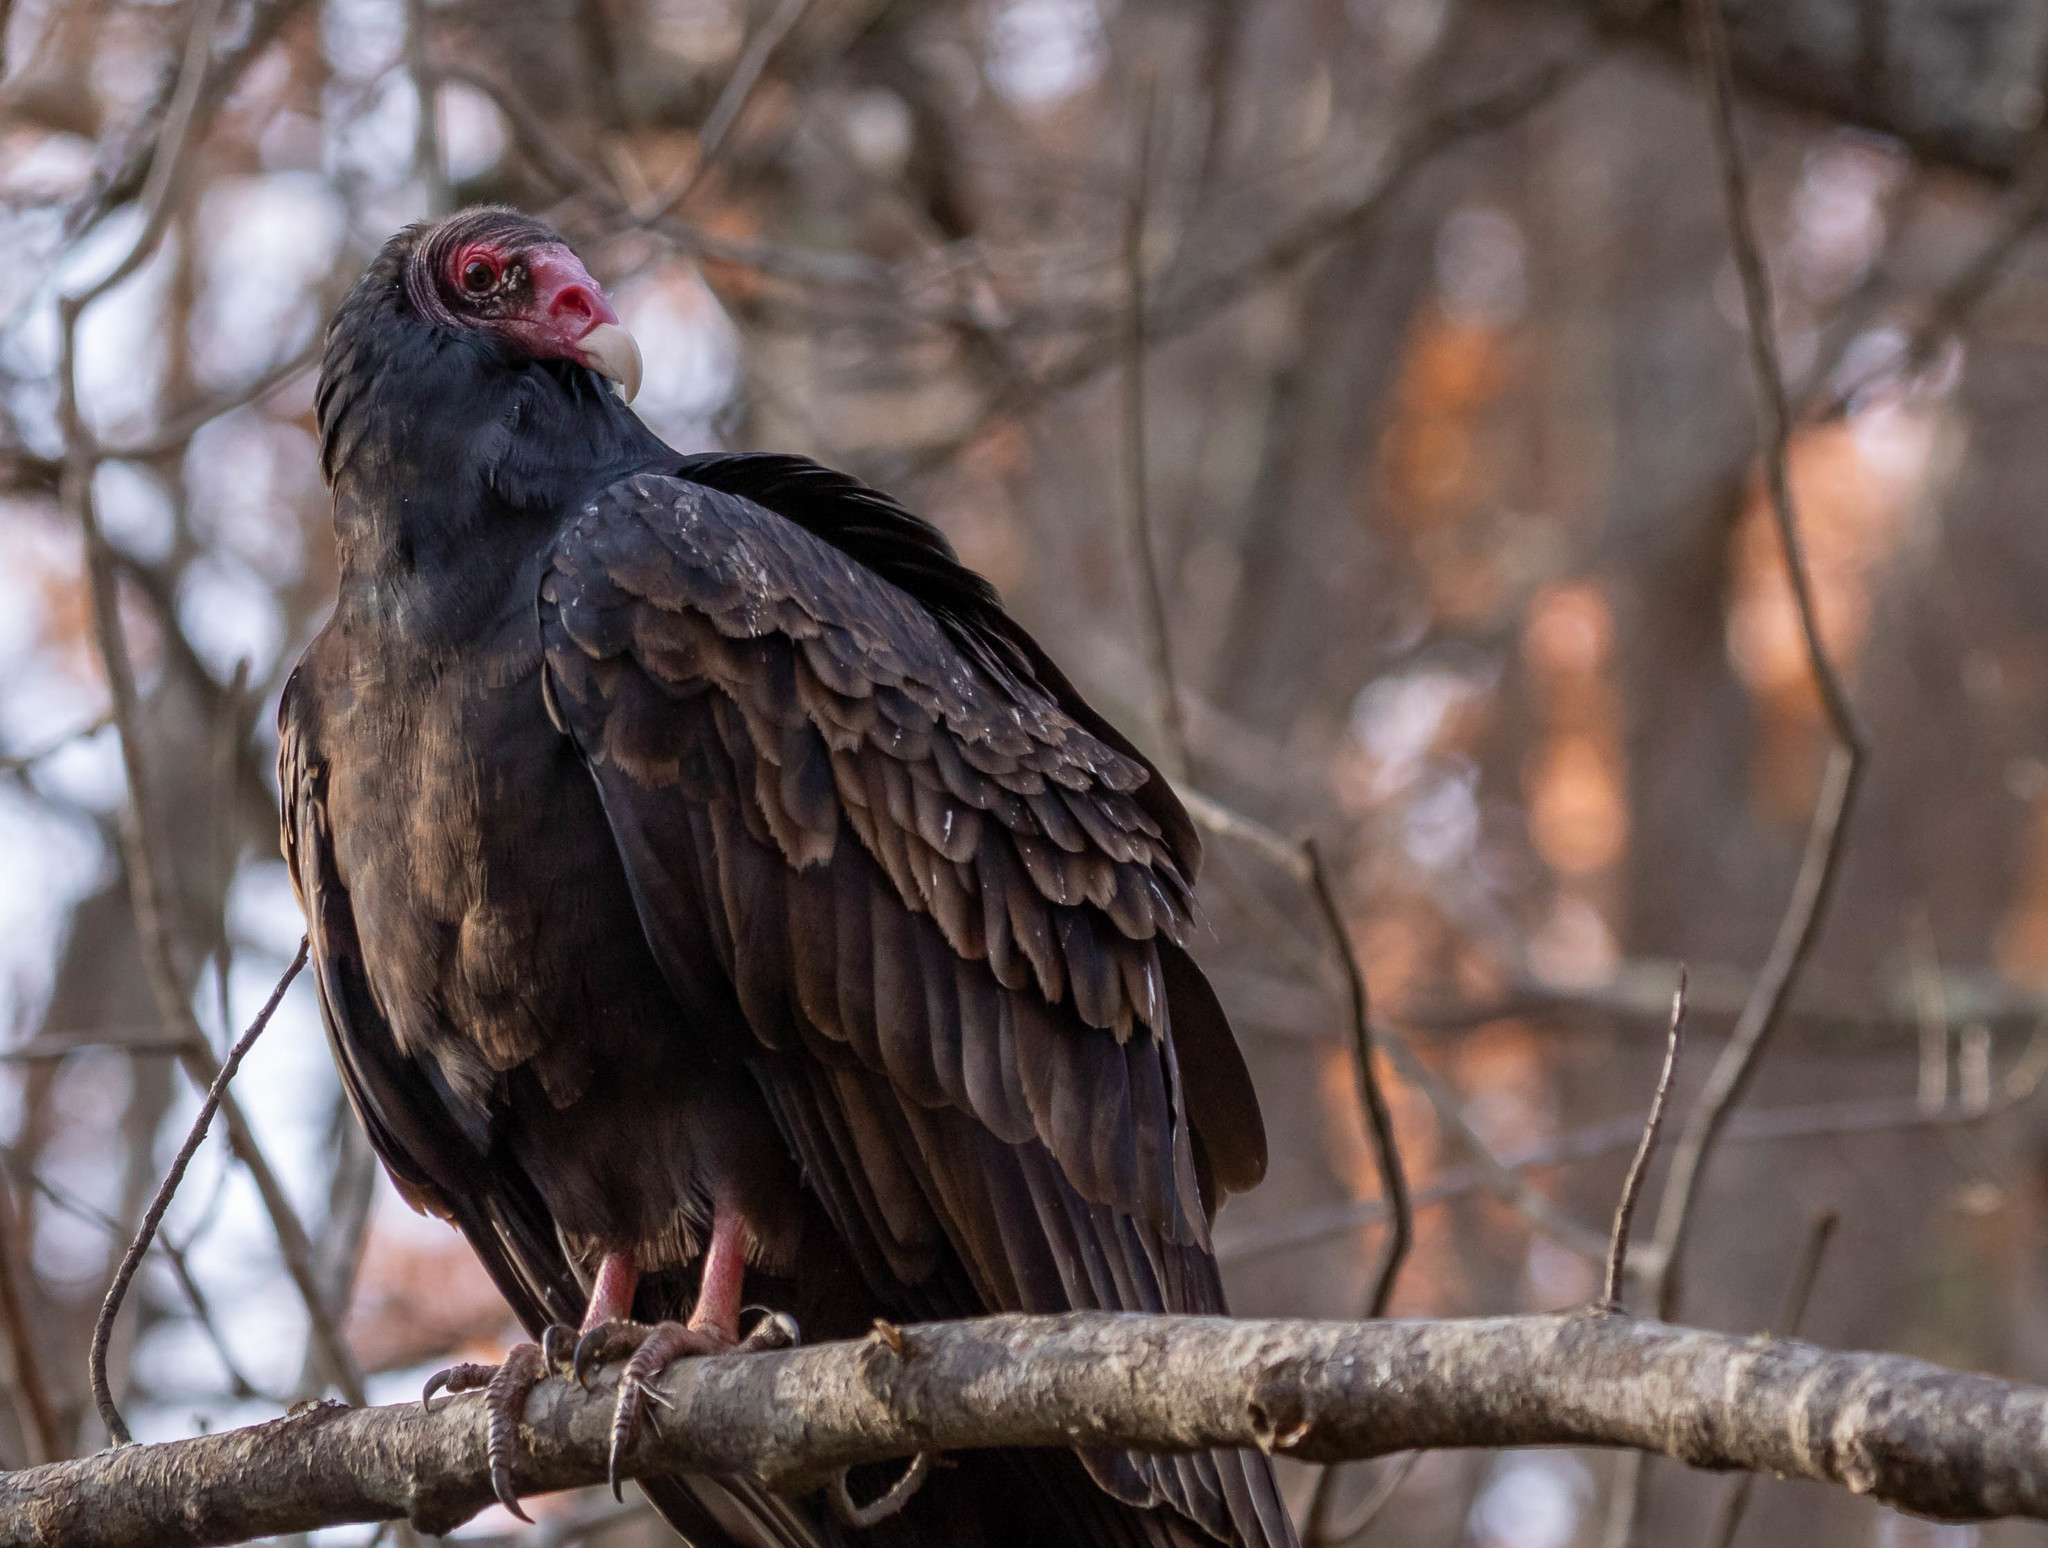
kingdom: Animalia
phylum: Chordata
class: Aves
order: Accipitriformes
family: Cathartidae
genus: Cathartes
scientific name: Cathartes aura
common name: Turkey vulture
